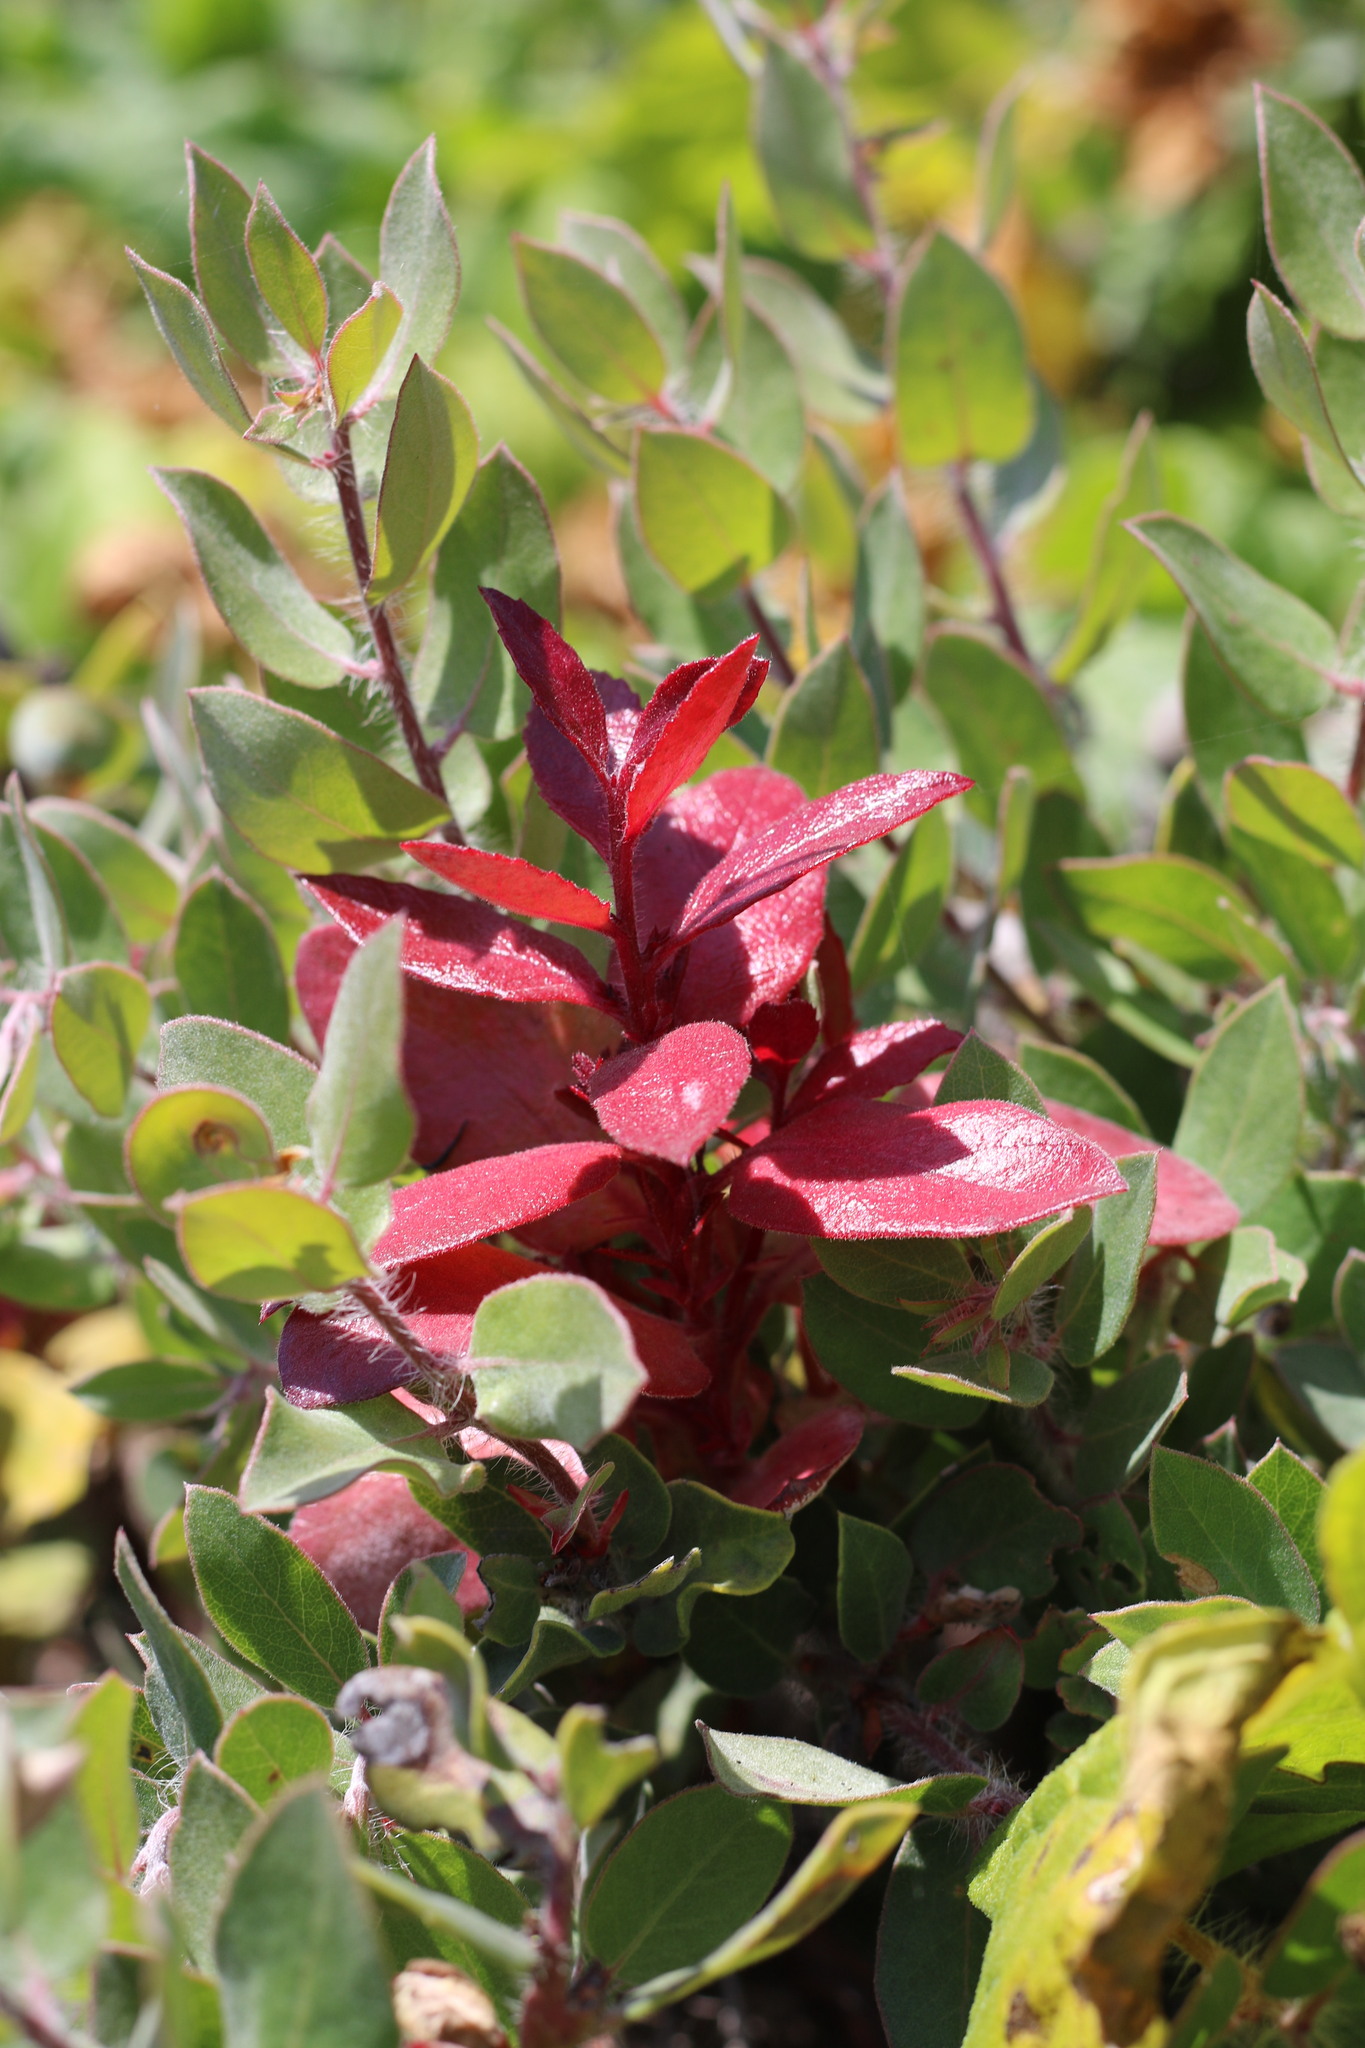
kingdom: Fungi
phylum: Basidiomycota
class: Exobasidiomycetes
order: Exobasidiales
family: Exobasidiaceae
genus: Exobasidium
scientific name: Exobasidium arctostaphyli
